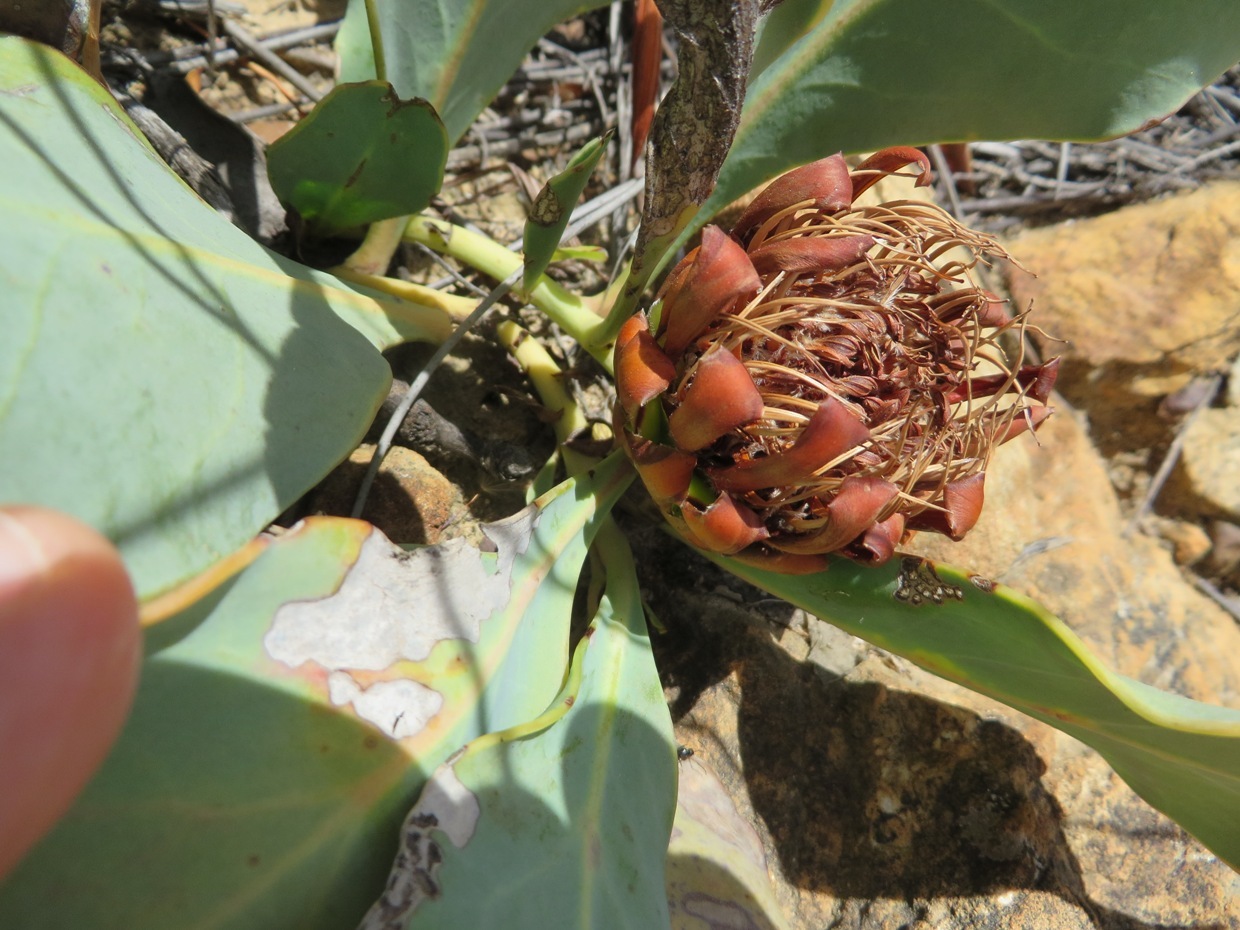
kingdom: Plantae
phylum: Tracheophyta
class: Magnoliopsida
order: Proteales
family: Proteaceae
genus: Protea
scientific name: Protea acaulos
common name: Common ground sugarbush
